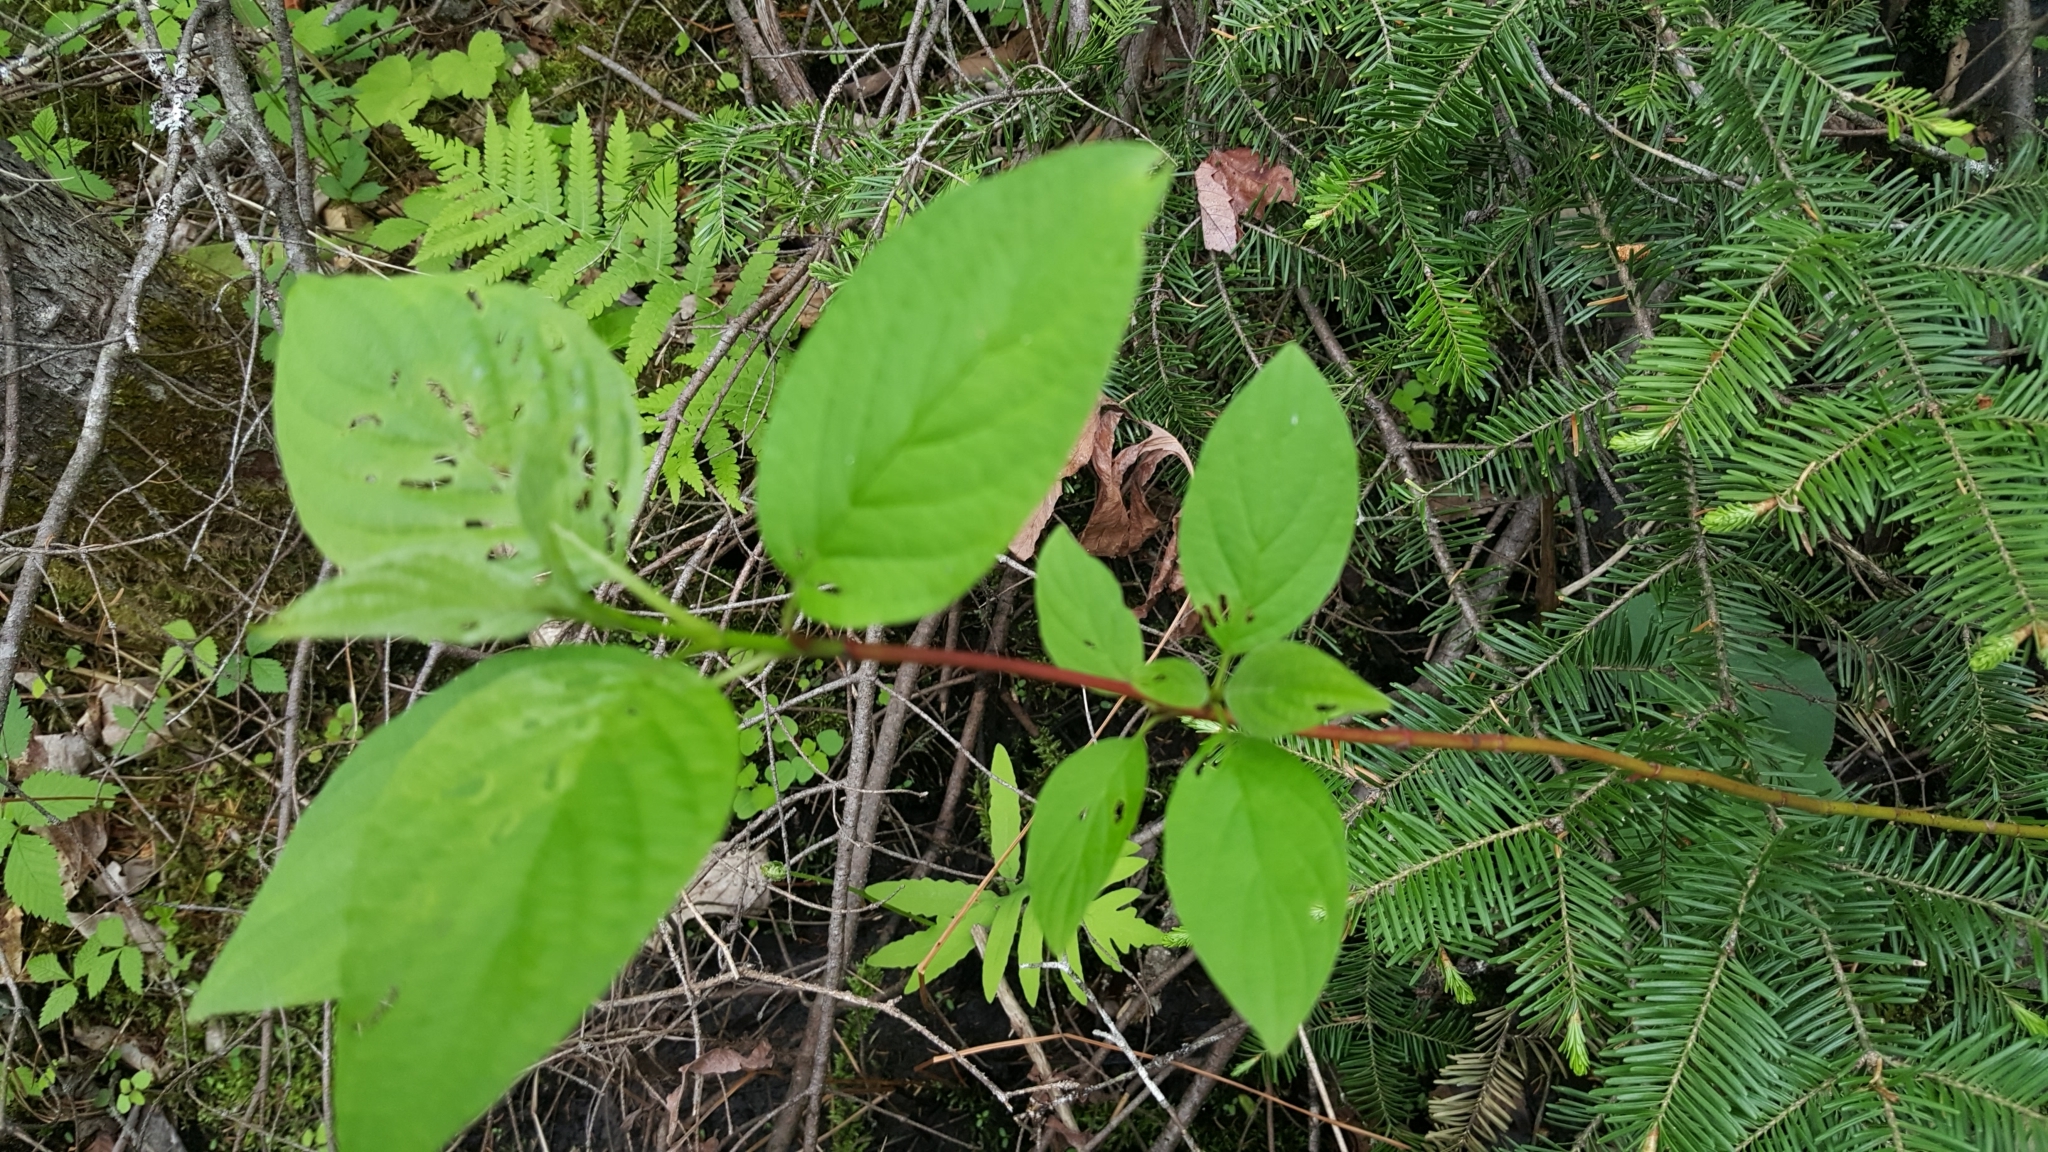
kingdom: Plantae
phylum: Tracheophyta
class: Magnoliopsida
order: Cornales
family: Cornaceae
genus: Cornus
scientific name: Cornus sericea
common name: Red-osier dogwood
